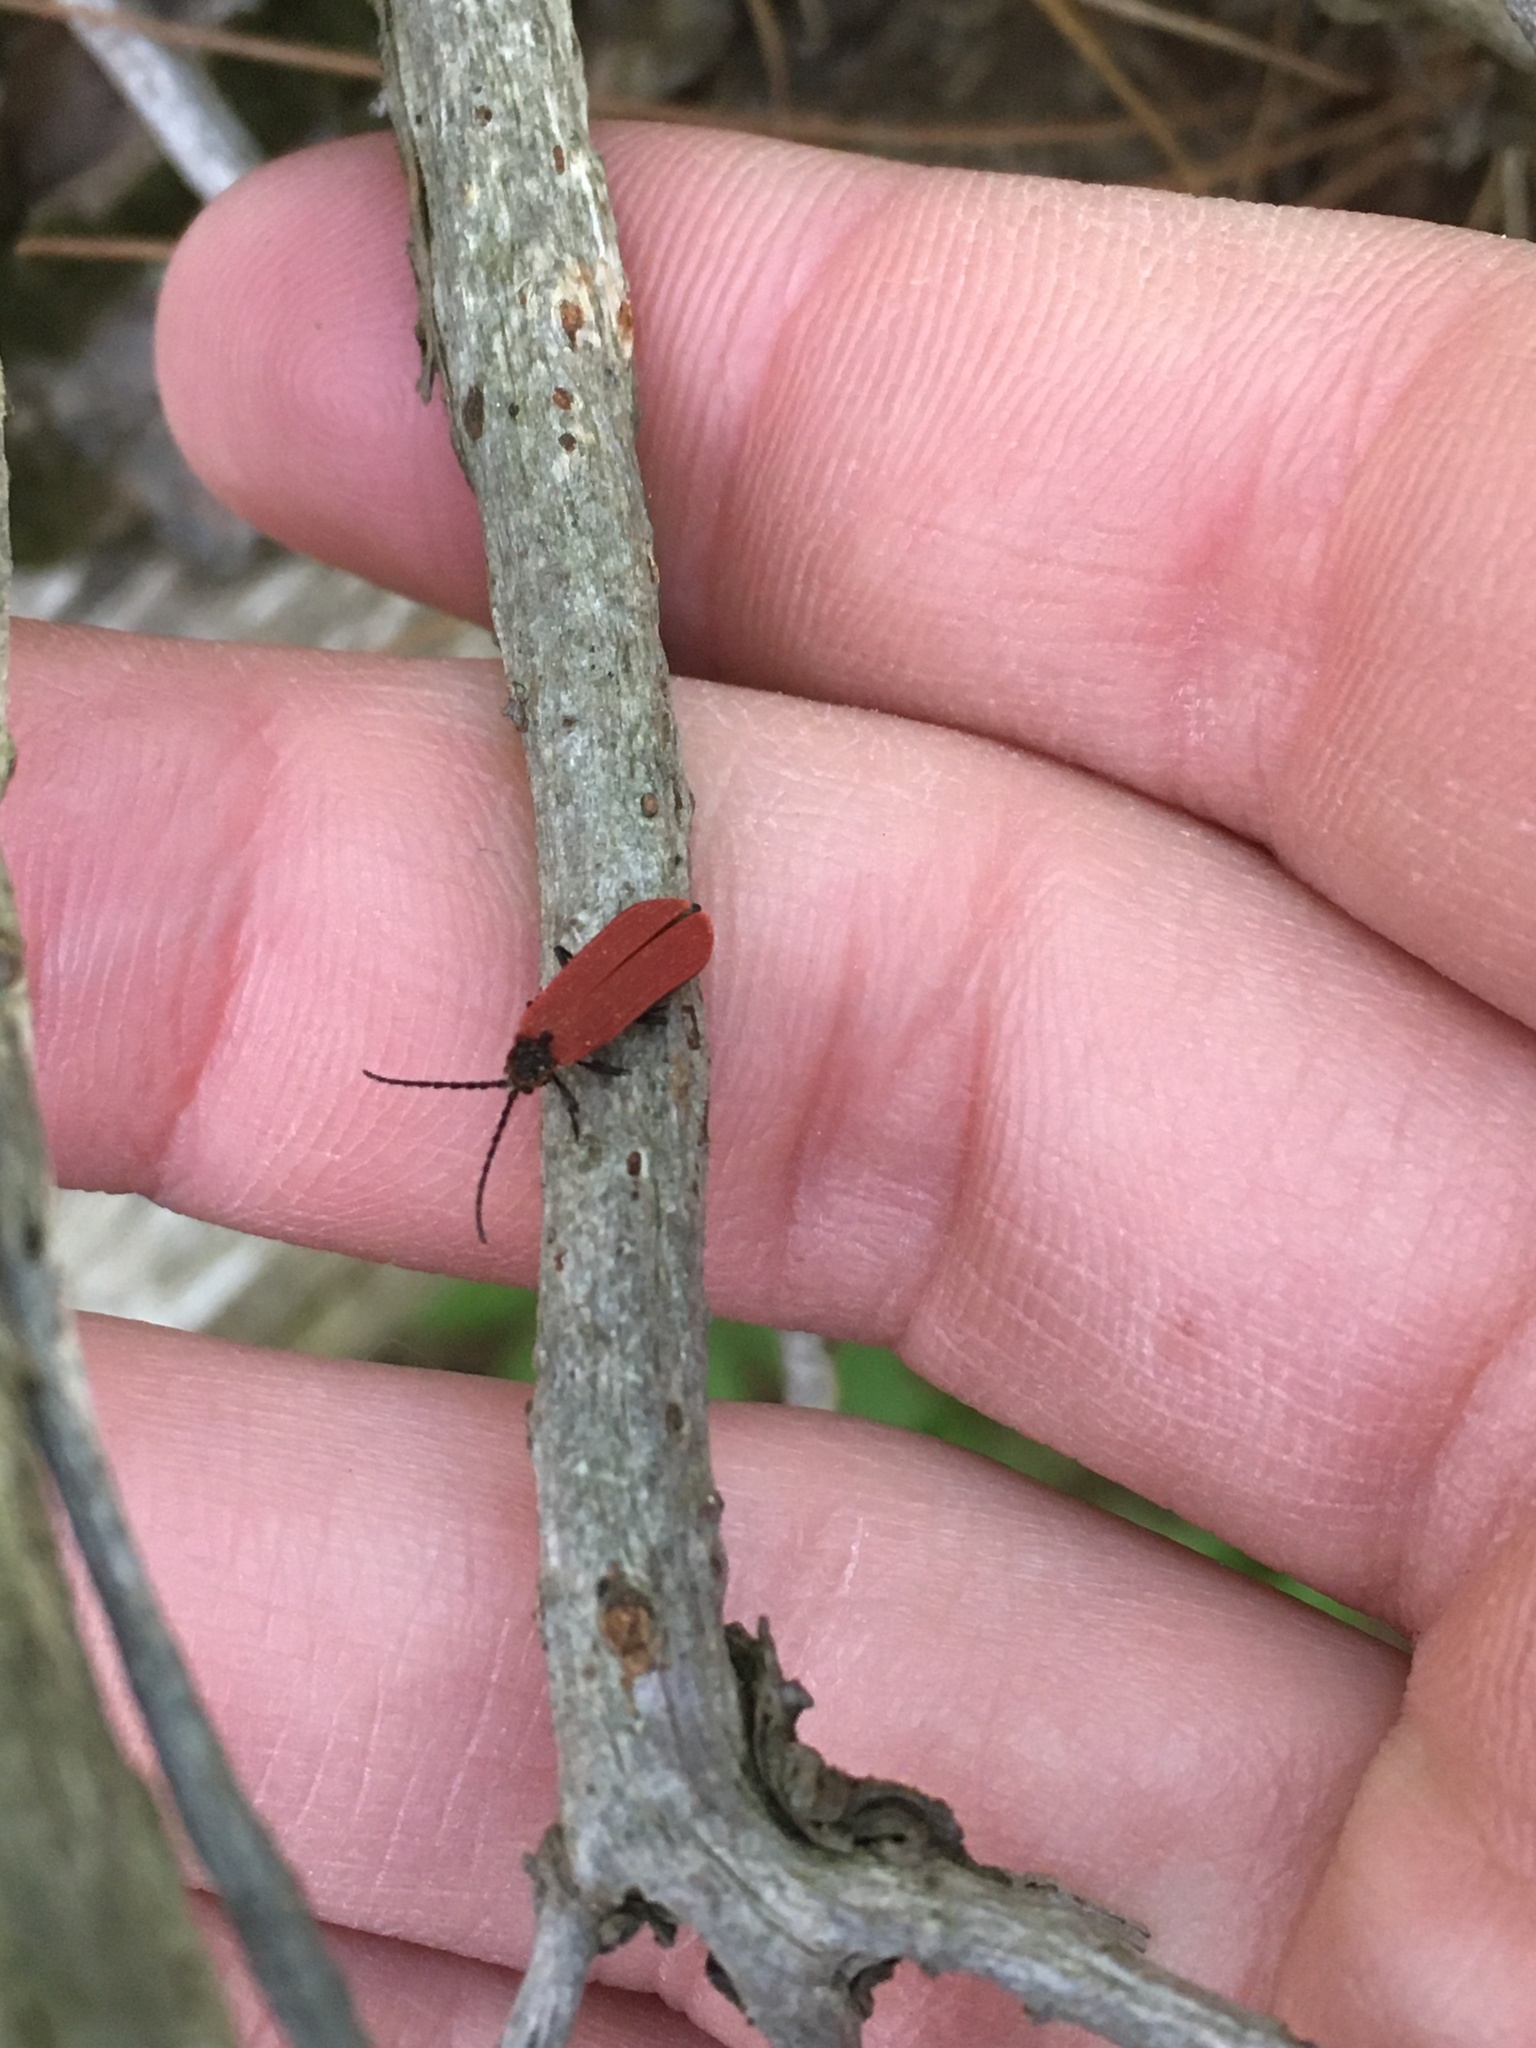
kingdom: Animalia
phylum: Arthropoda
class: Insecta
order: Coleoptera
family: Lycidae
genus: Dictyoptera
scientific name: Dictyoptera aurora
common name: Golden net-winged beetle
